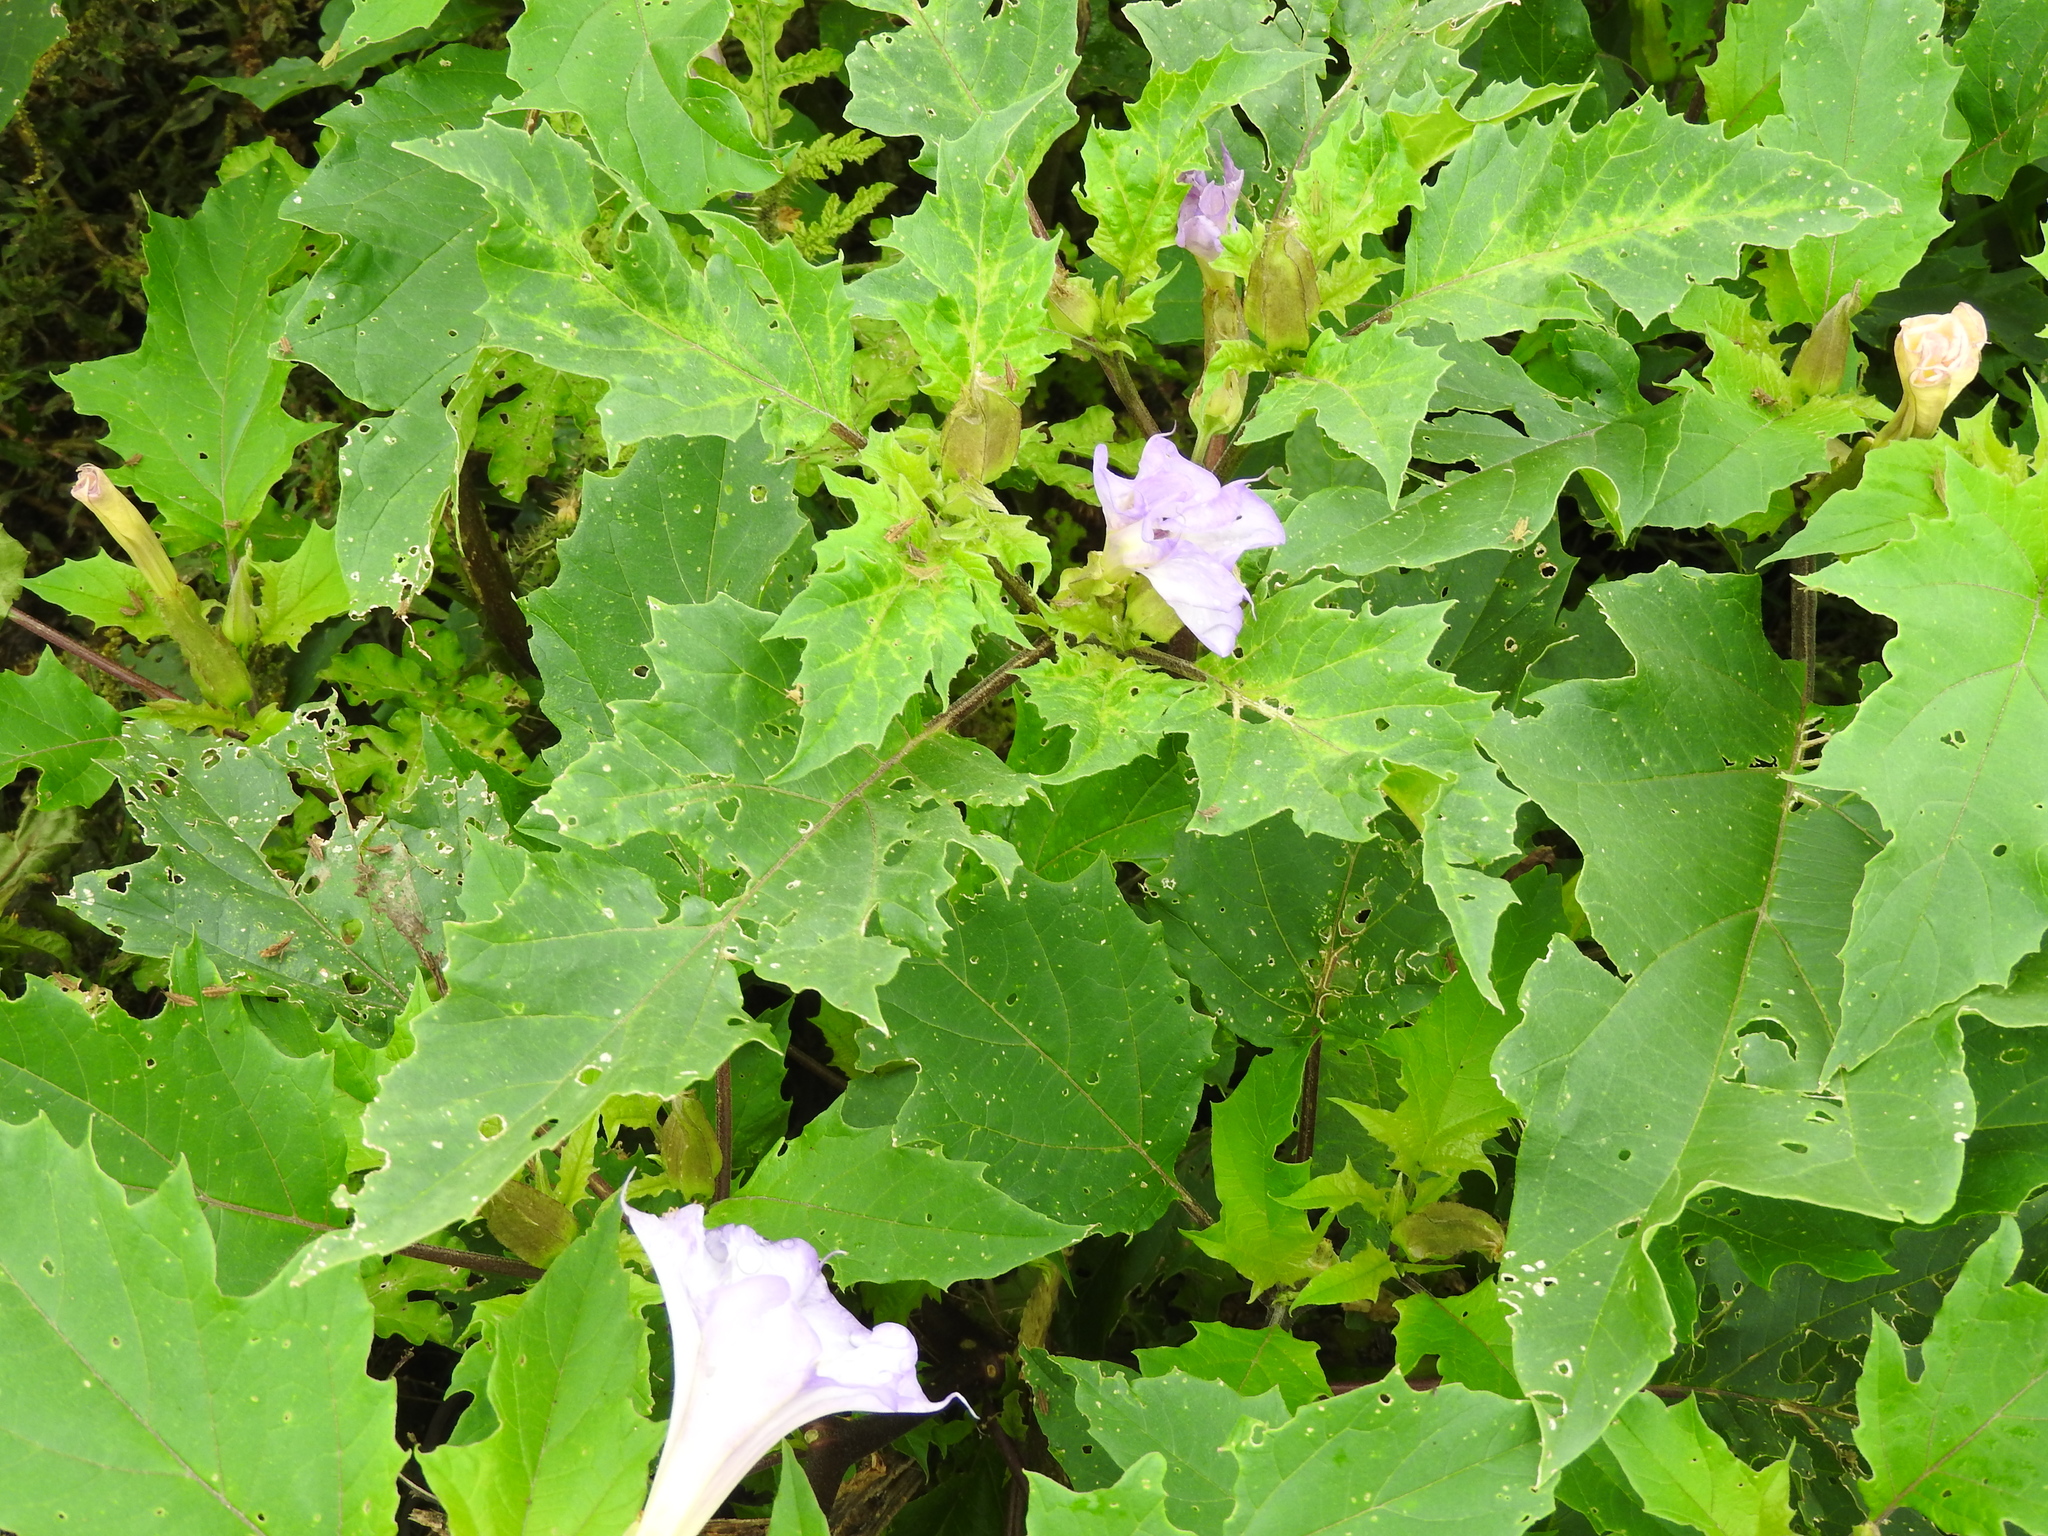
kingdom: Plantae
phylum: Tracheophyta
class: Magnoliopsida
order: Solanales
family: Solanaceae
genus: Datura
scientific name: Datura stramonium
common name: Thorn-apple
